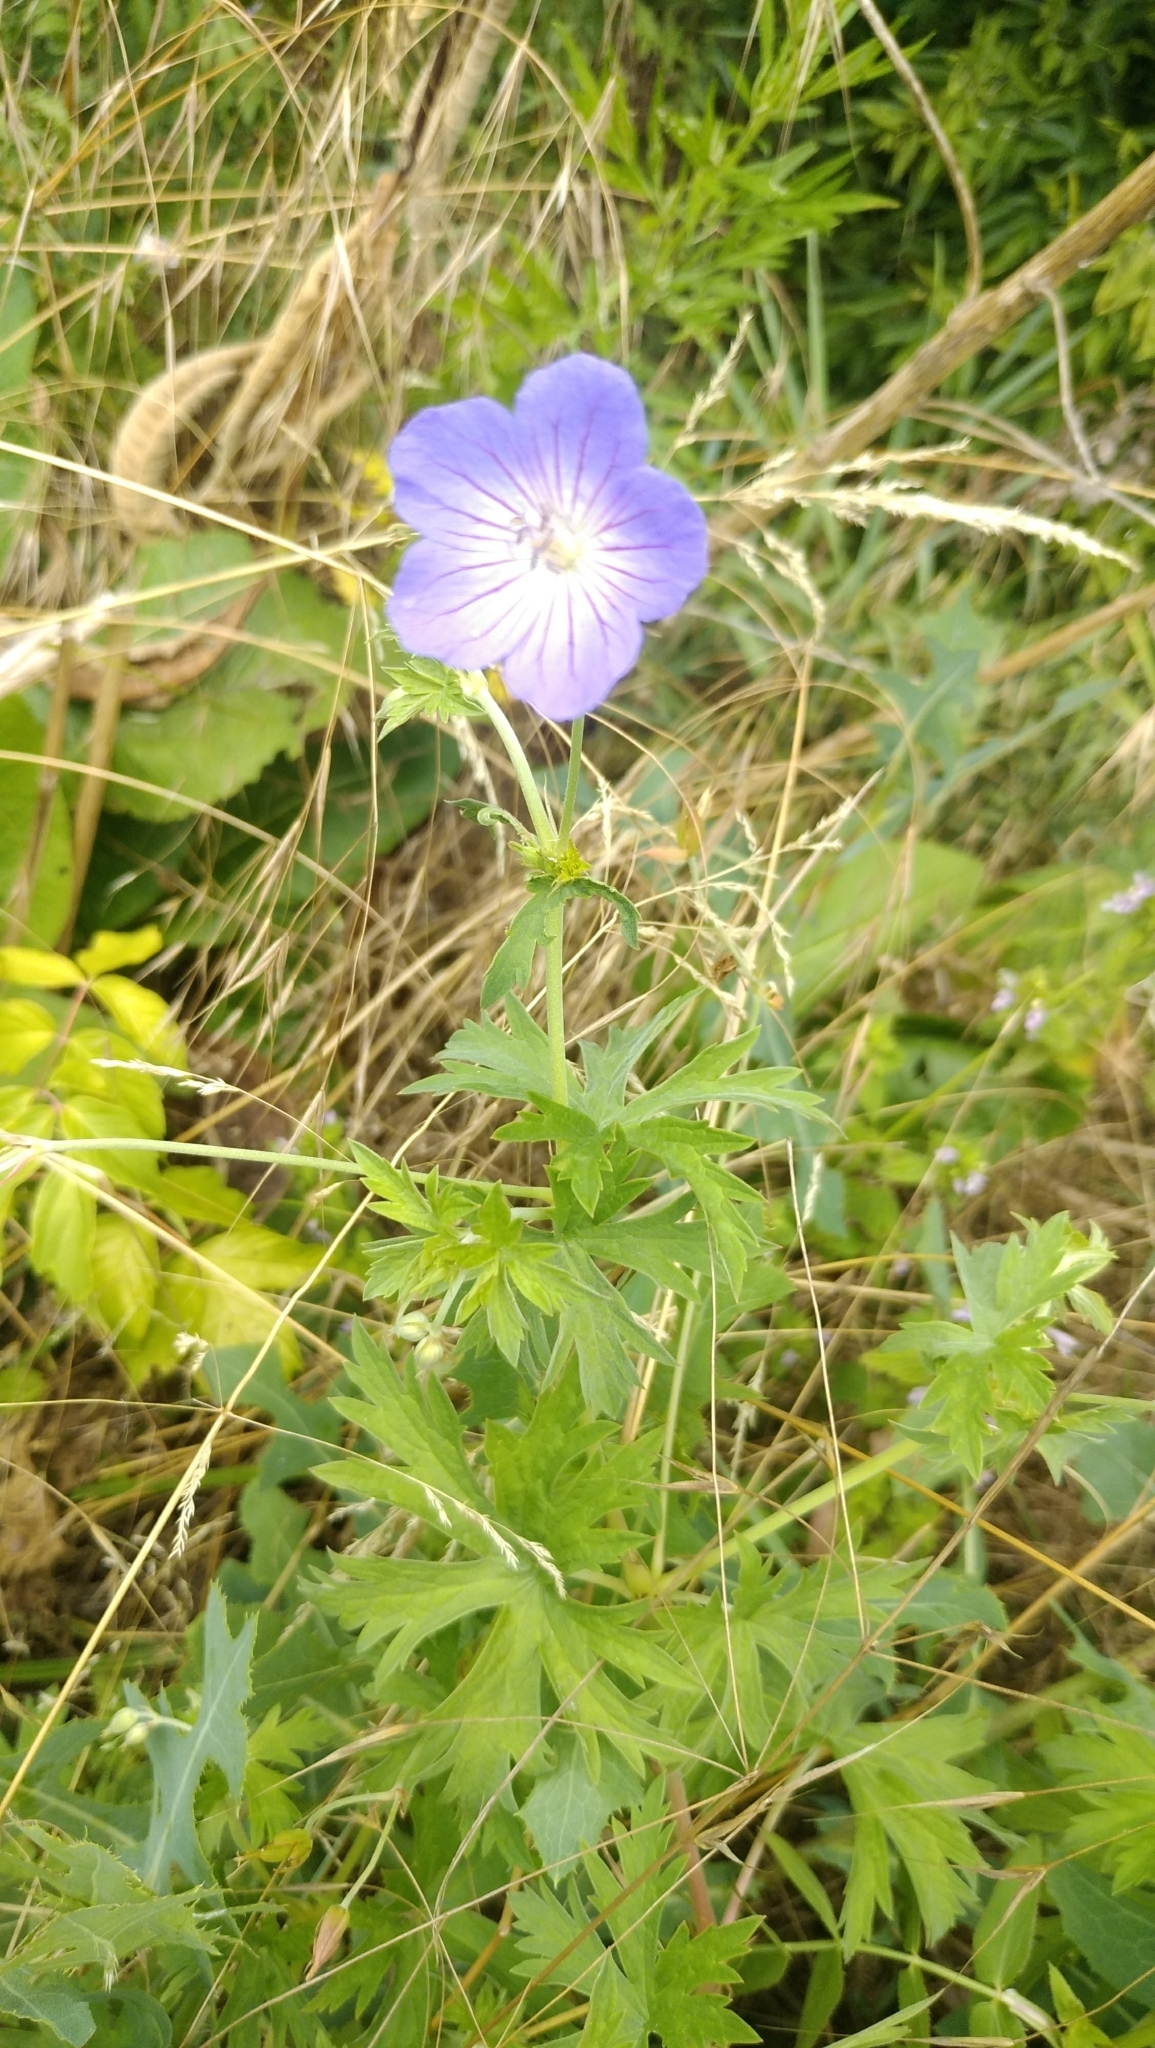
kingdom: Plantae
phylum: Tracheophyta
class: Magnoliopsida
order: Geraniales
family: Geraniaceae
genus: Geranium
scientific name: Geranium collinum
